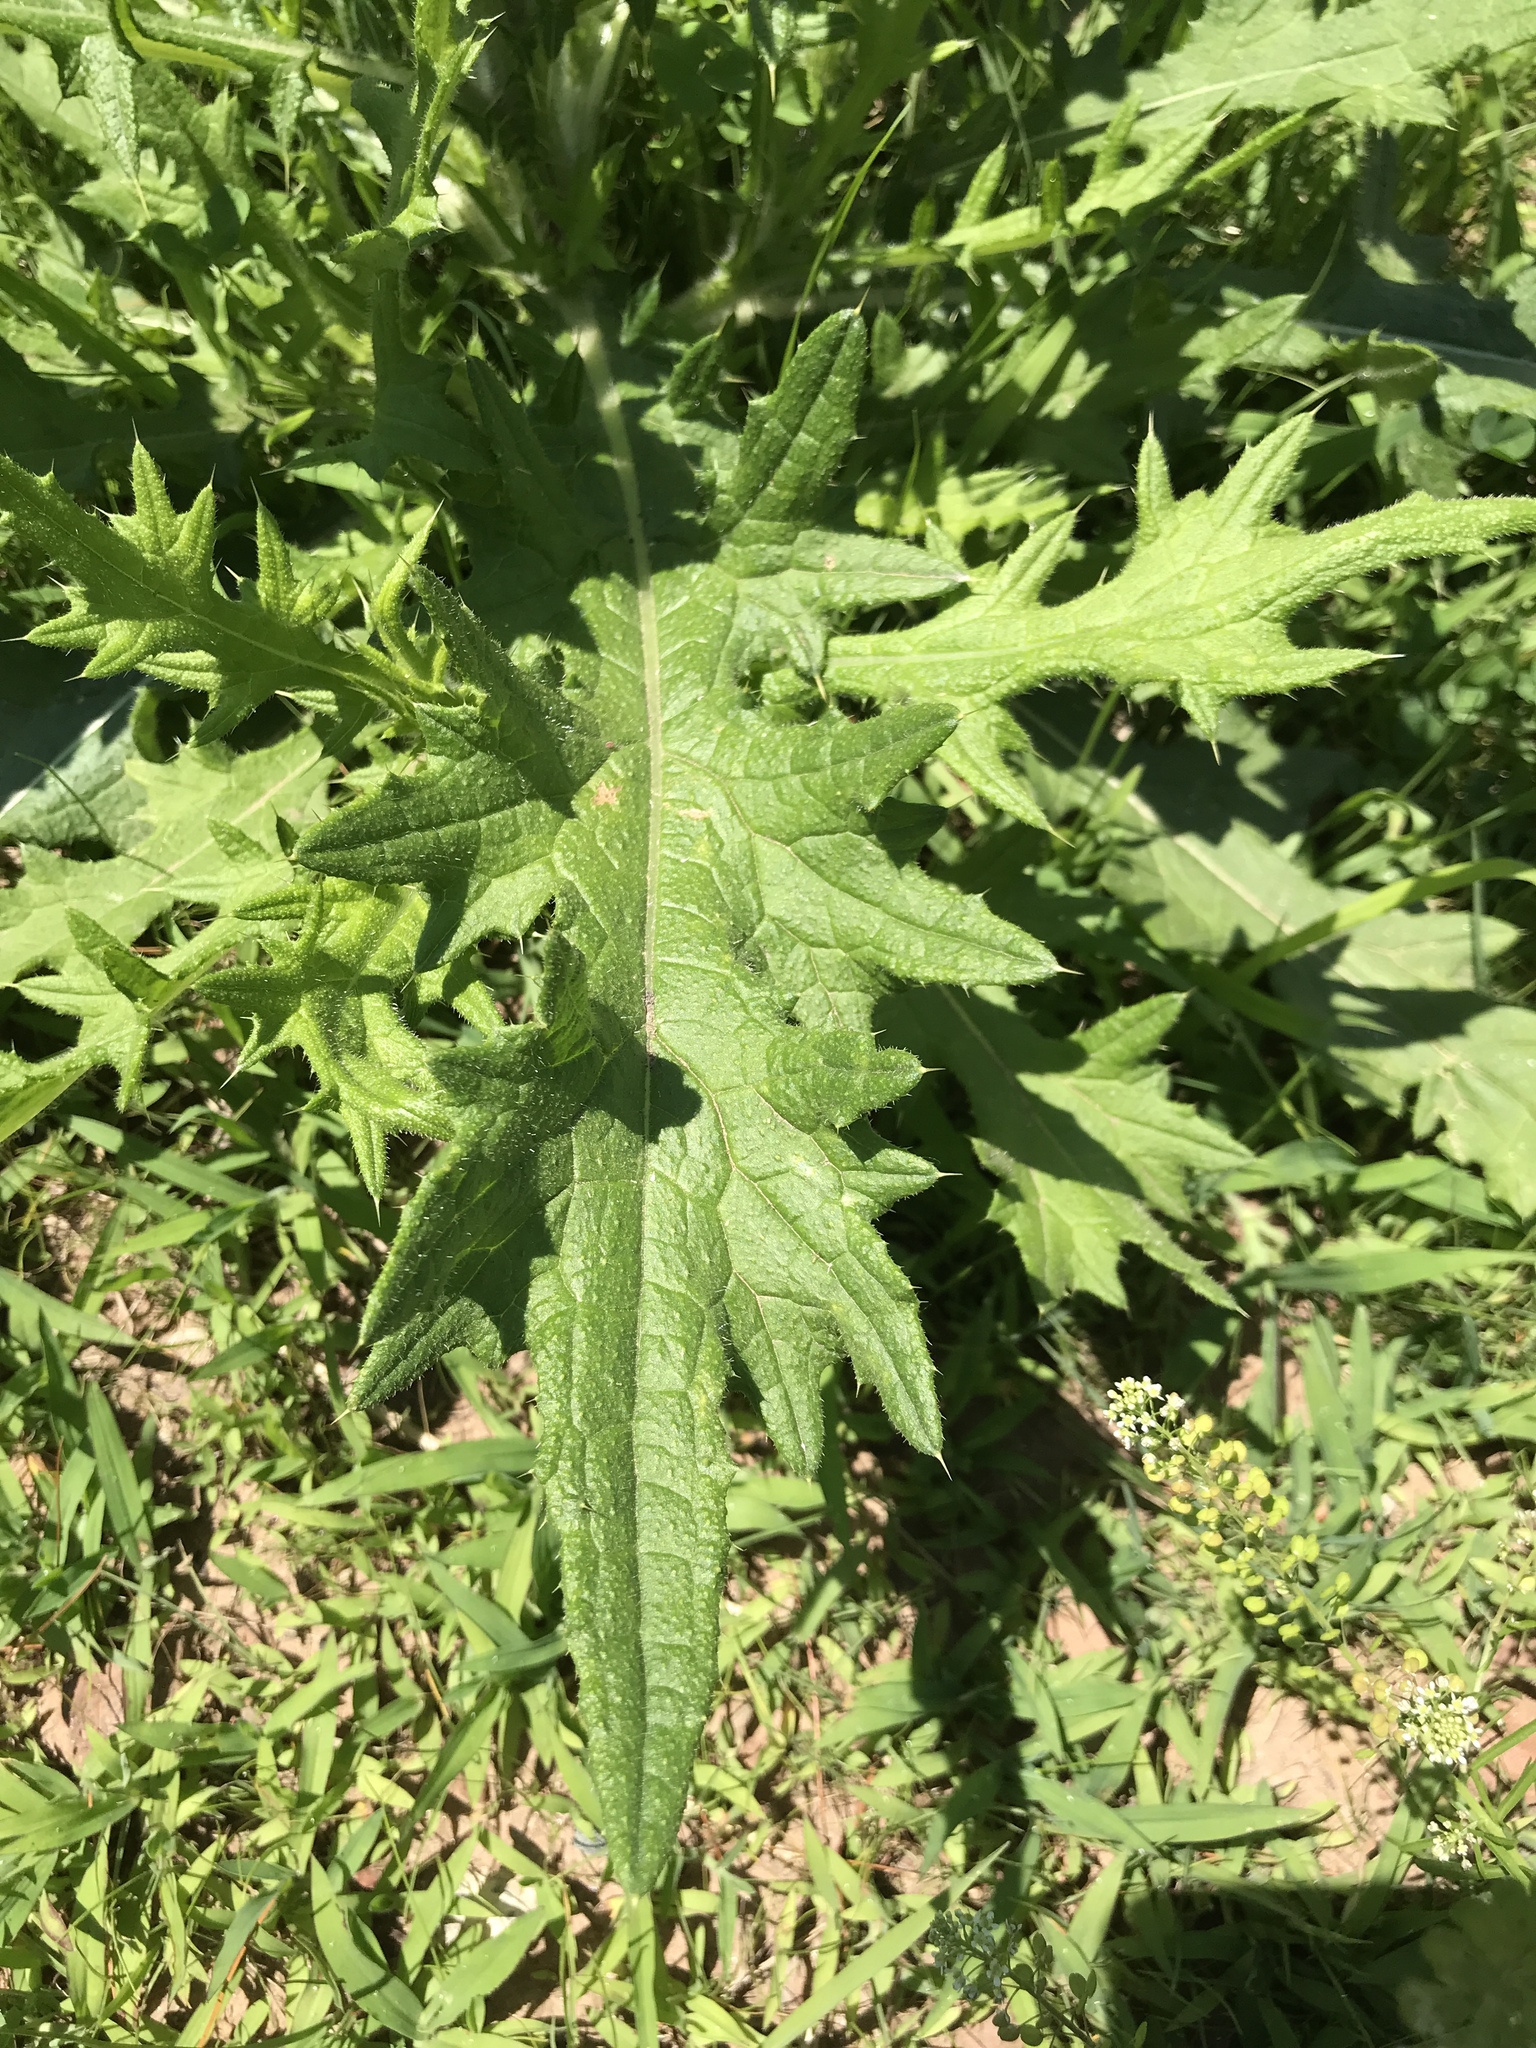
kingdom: Plantae
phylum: Tracheophyta
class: Magnoliopsida
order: Asterales
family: Asteraceae
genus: Cirsium
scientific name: Cirsium vulgare
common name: Bull thistle
